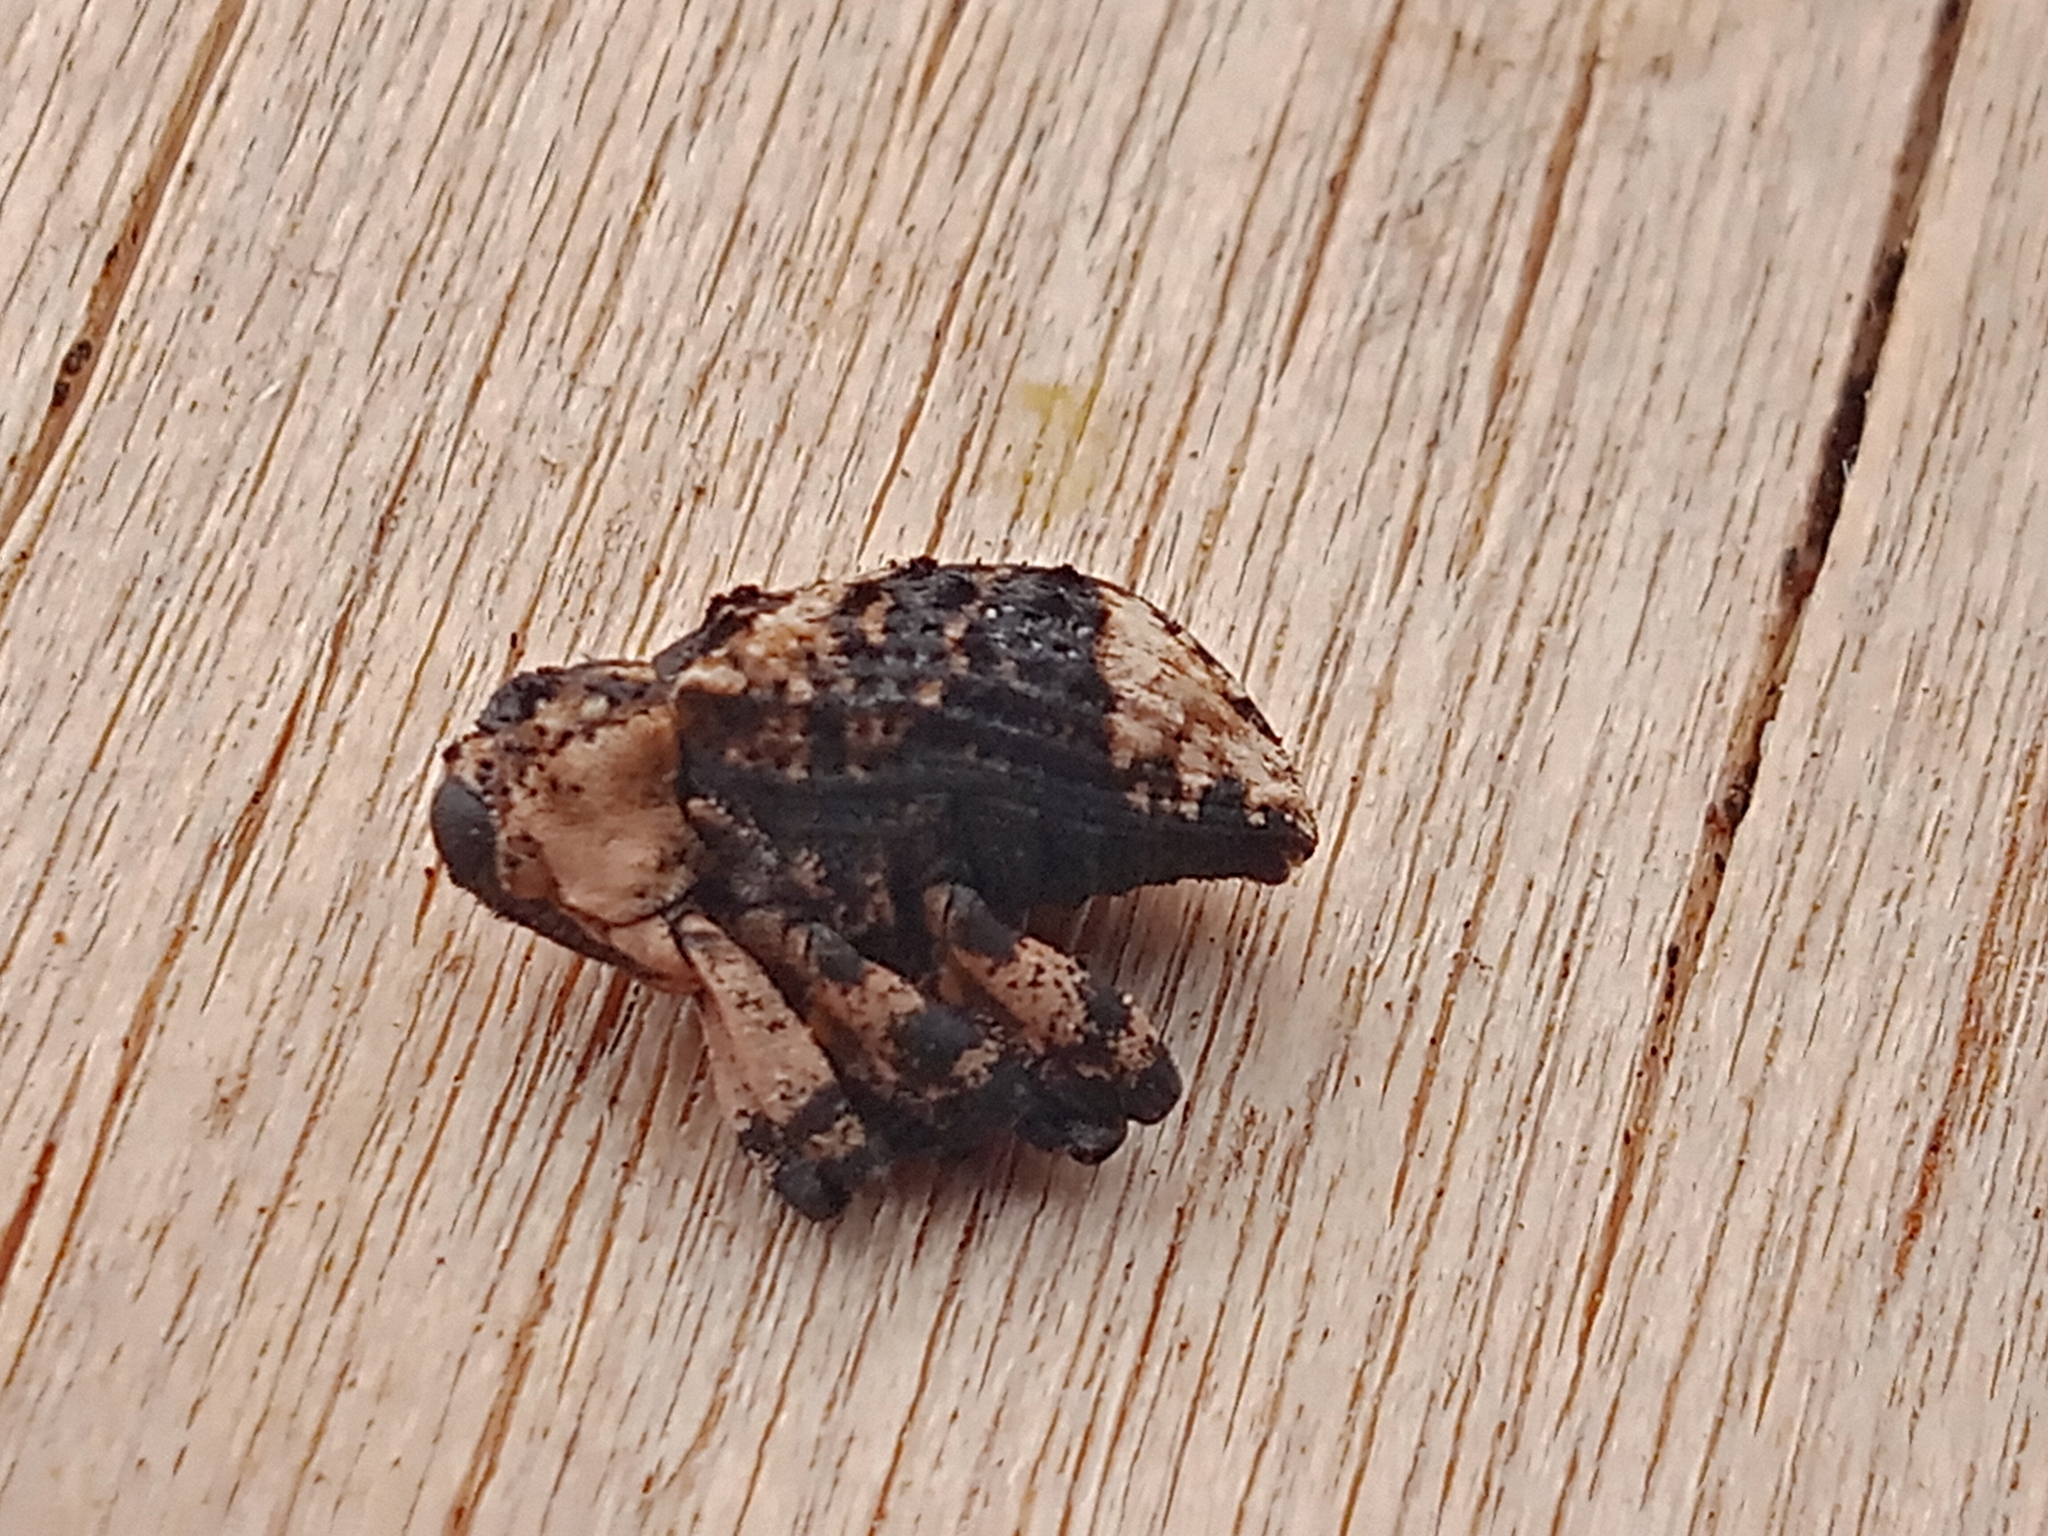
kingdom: Animalia
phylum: Arthropoda
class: Insecta
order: Coleoptera
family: Curculionidae
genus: Cryptorhynchus
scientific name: Cryptorhynchus lapathi
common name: Weevil
